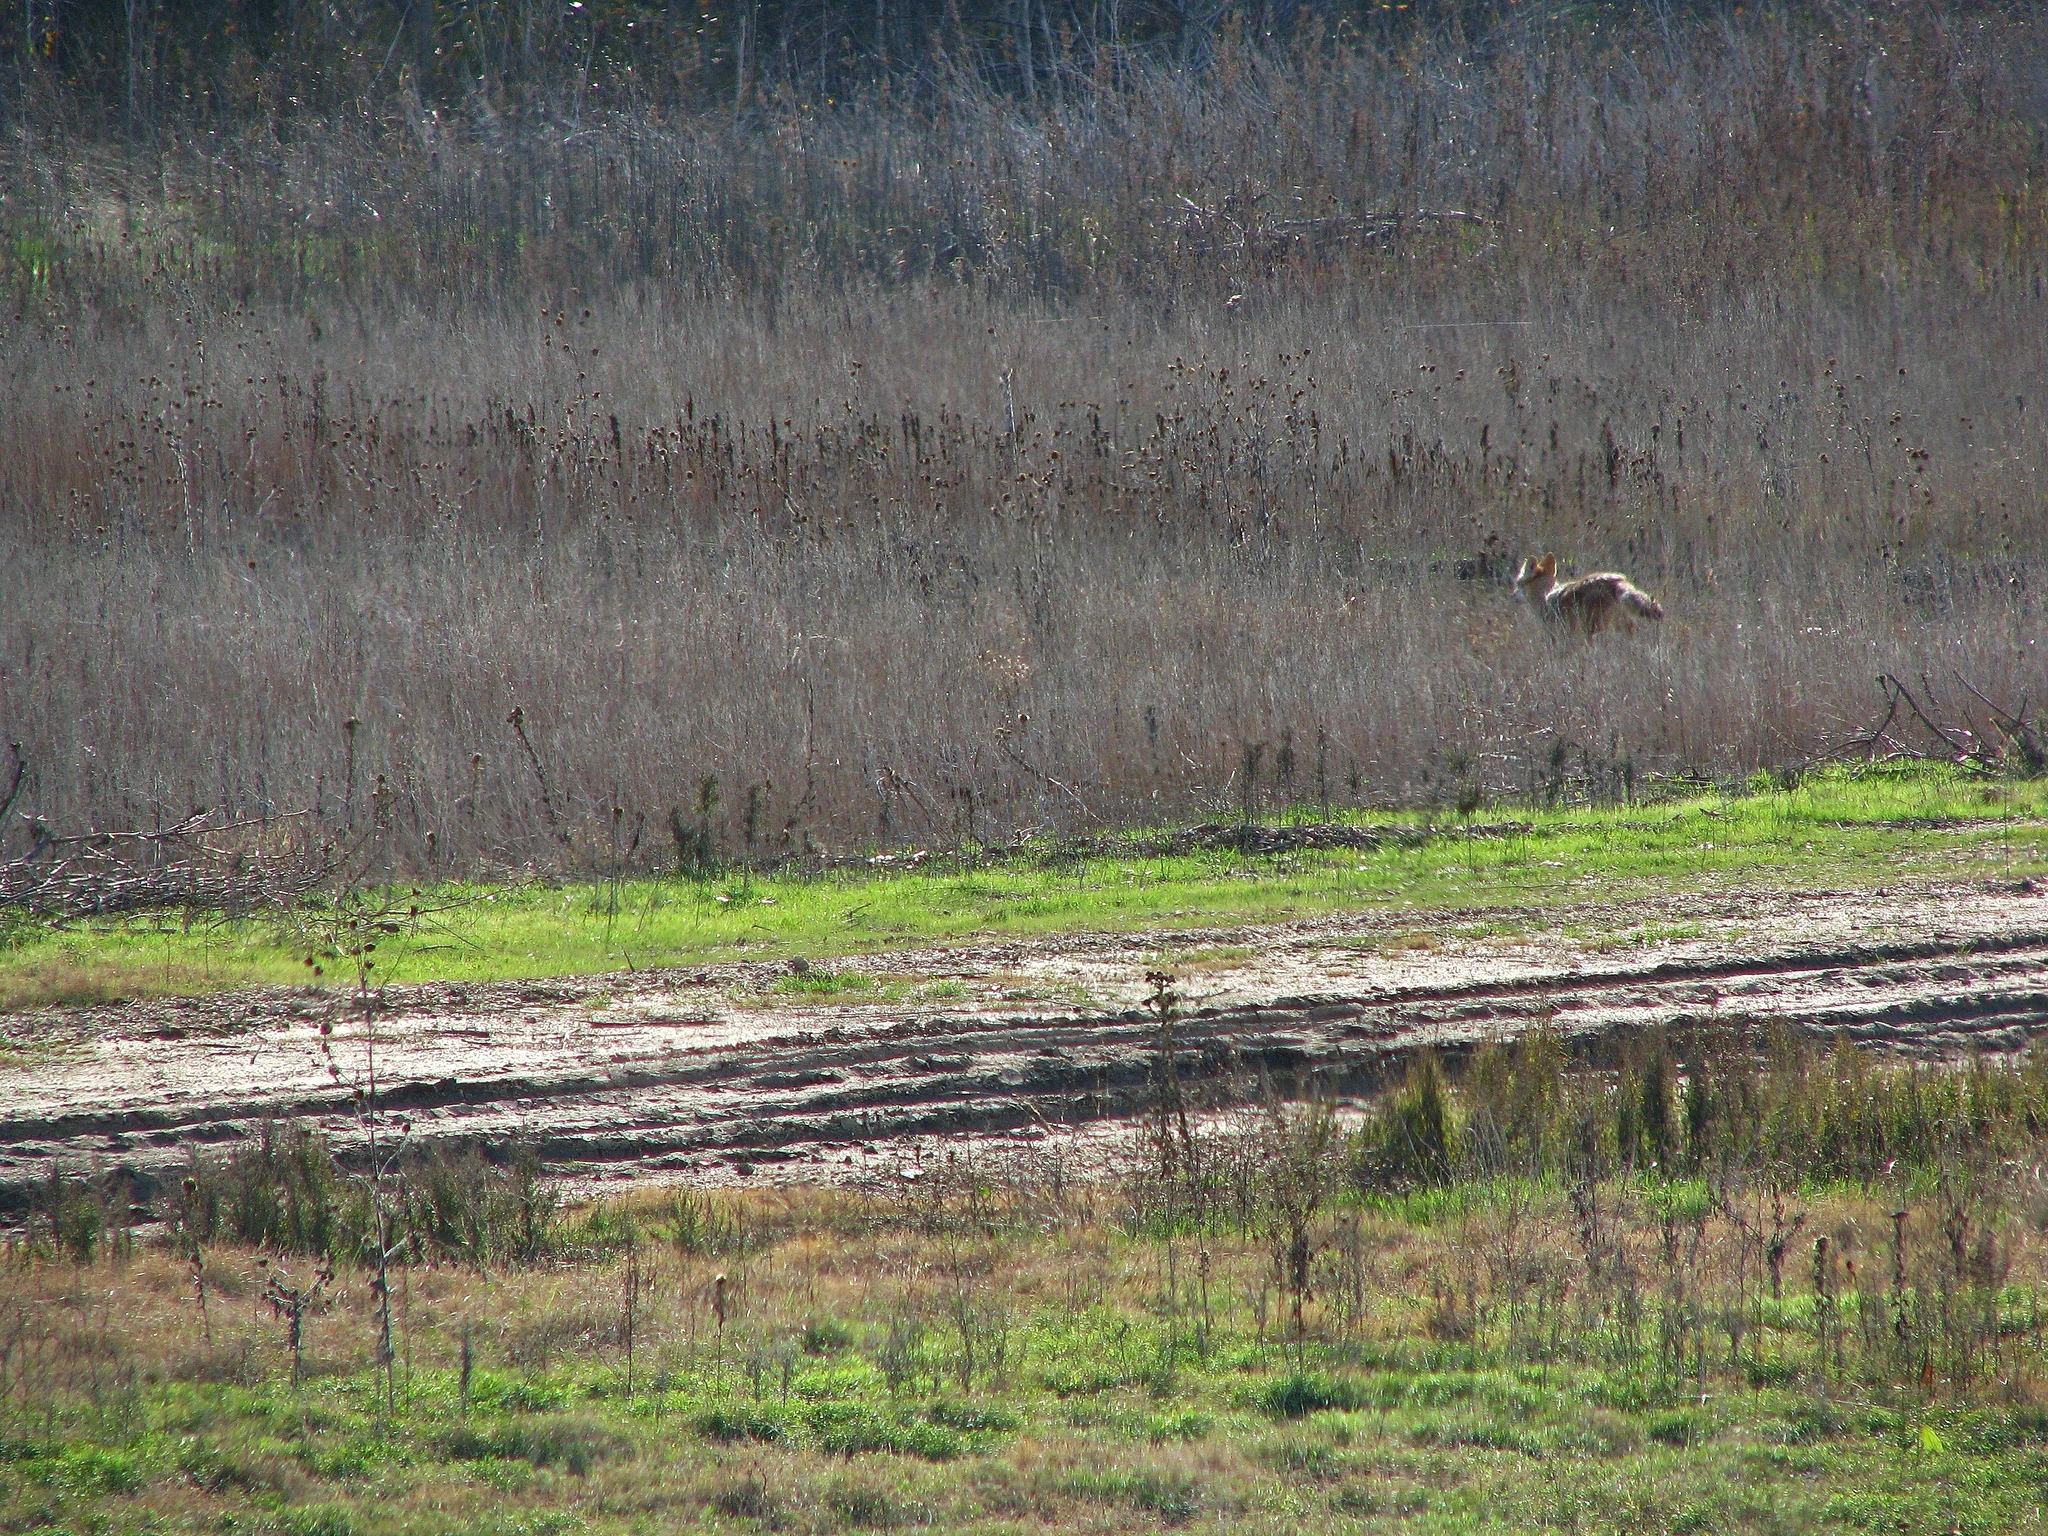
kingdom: Animalia
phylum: Chordata
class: Mammalia
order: Carnivora
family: Canidae
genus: Canis
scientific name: Canis latrans
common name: Coyote
